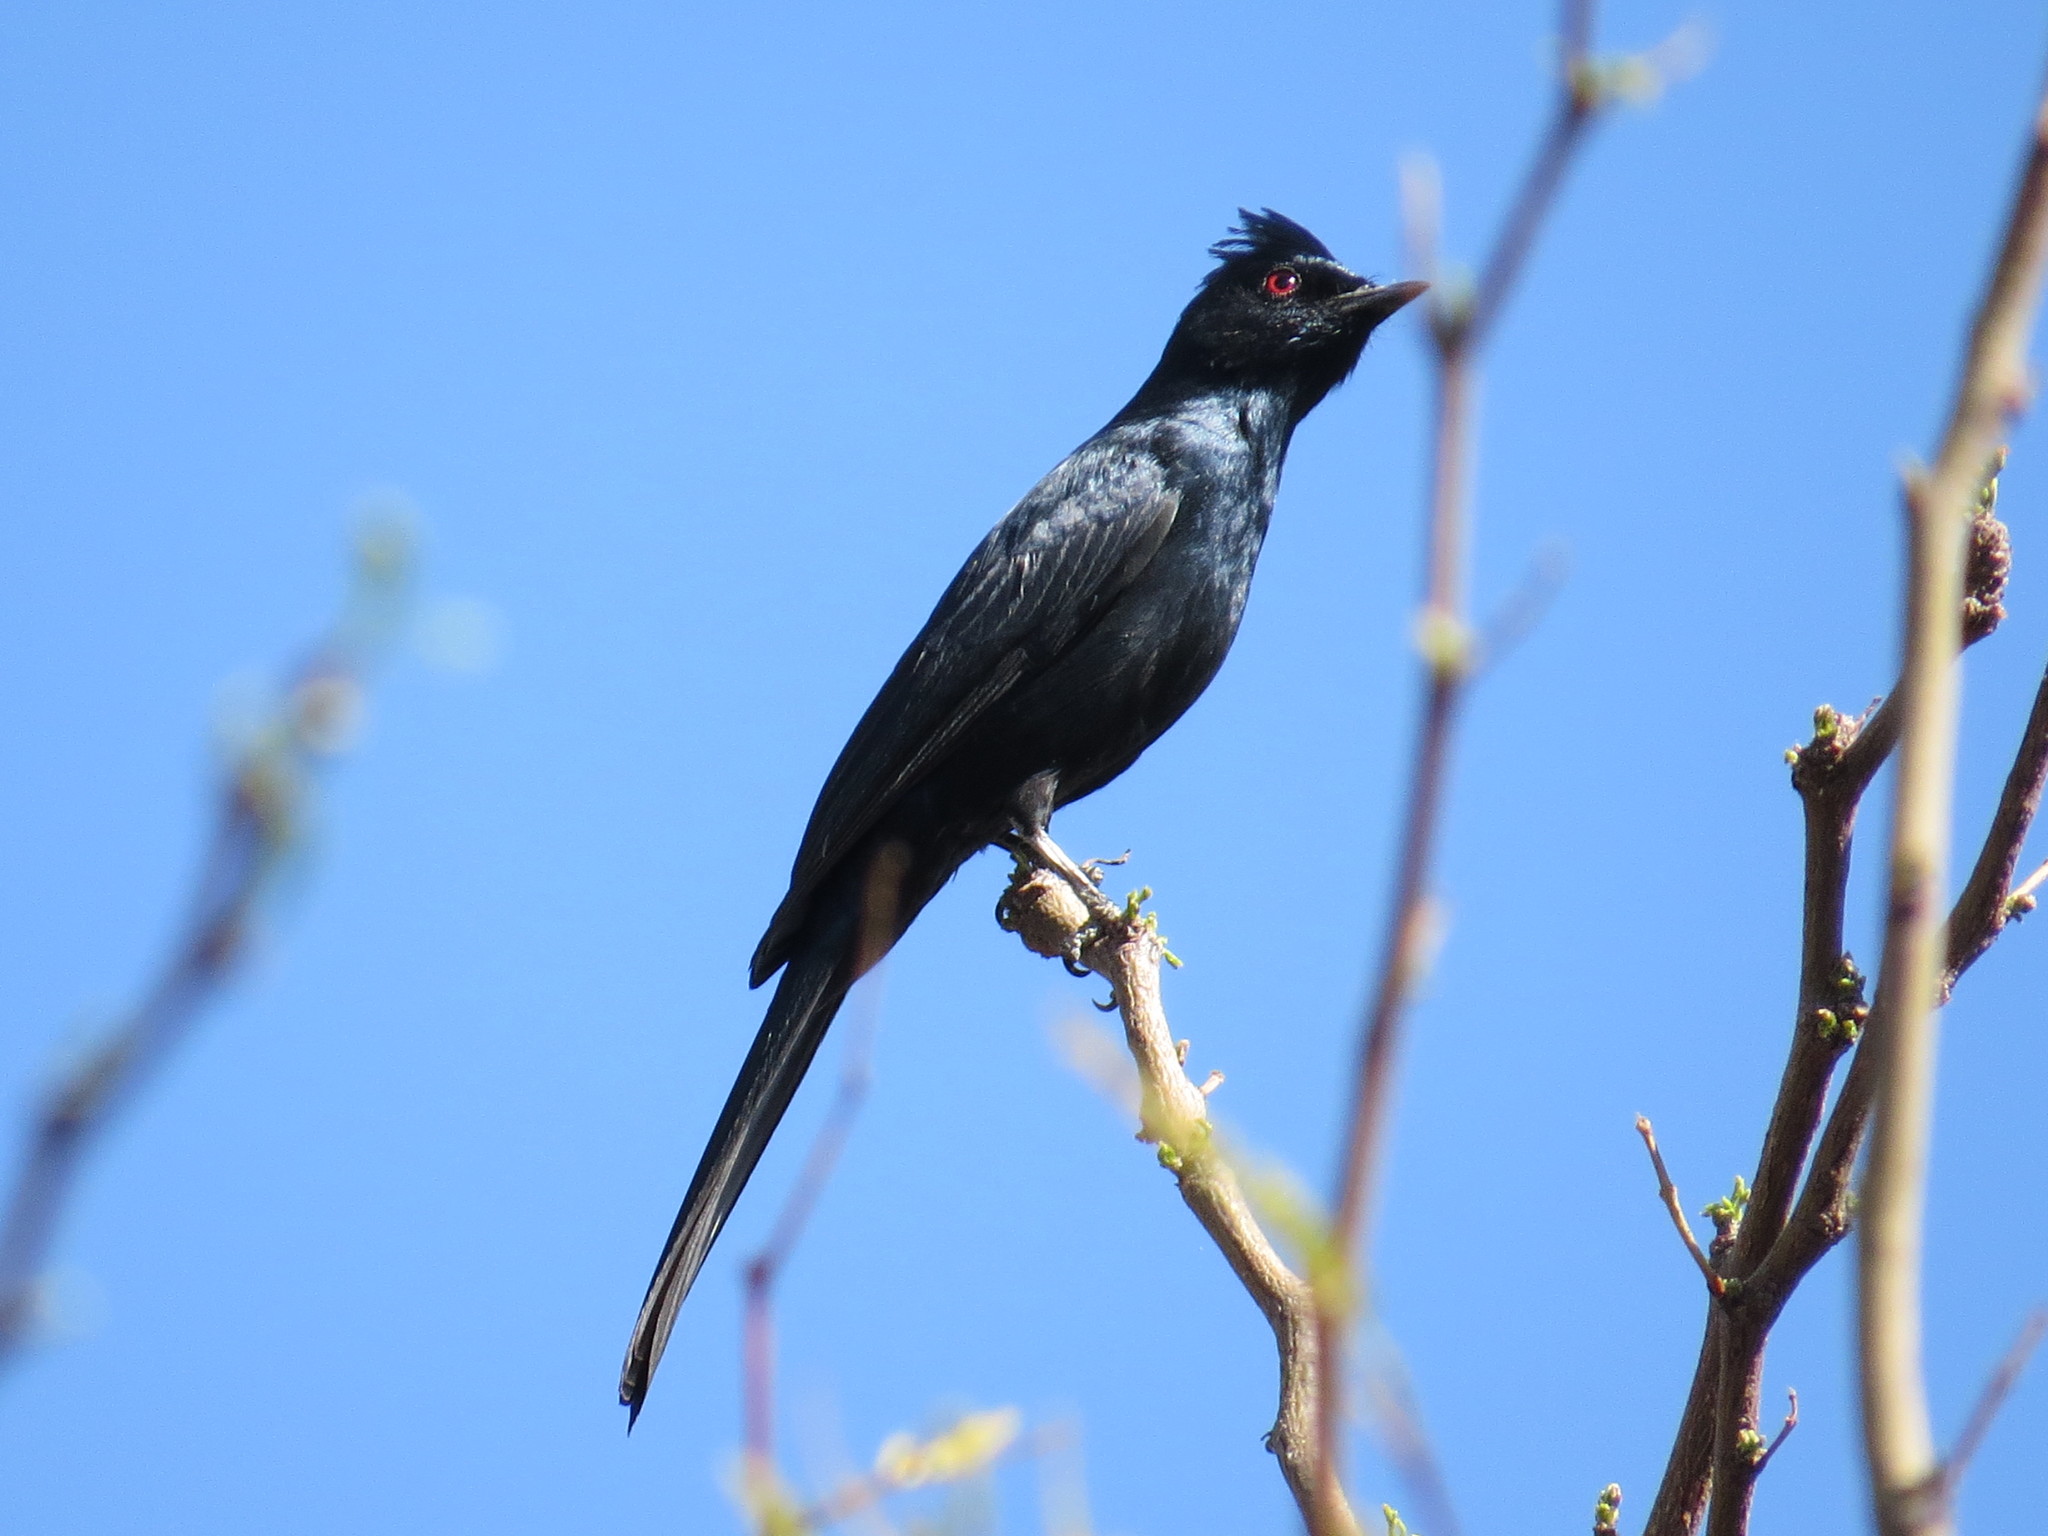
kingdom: Animalia
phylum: Chordata
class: Aves
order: Passeriformes
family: Ptilogonatidae
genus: Phainopepla
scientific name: Phainopepla nitens
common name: Phainopepla
